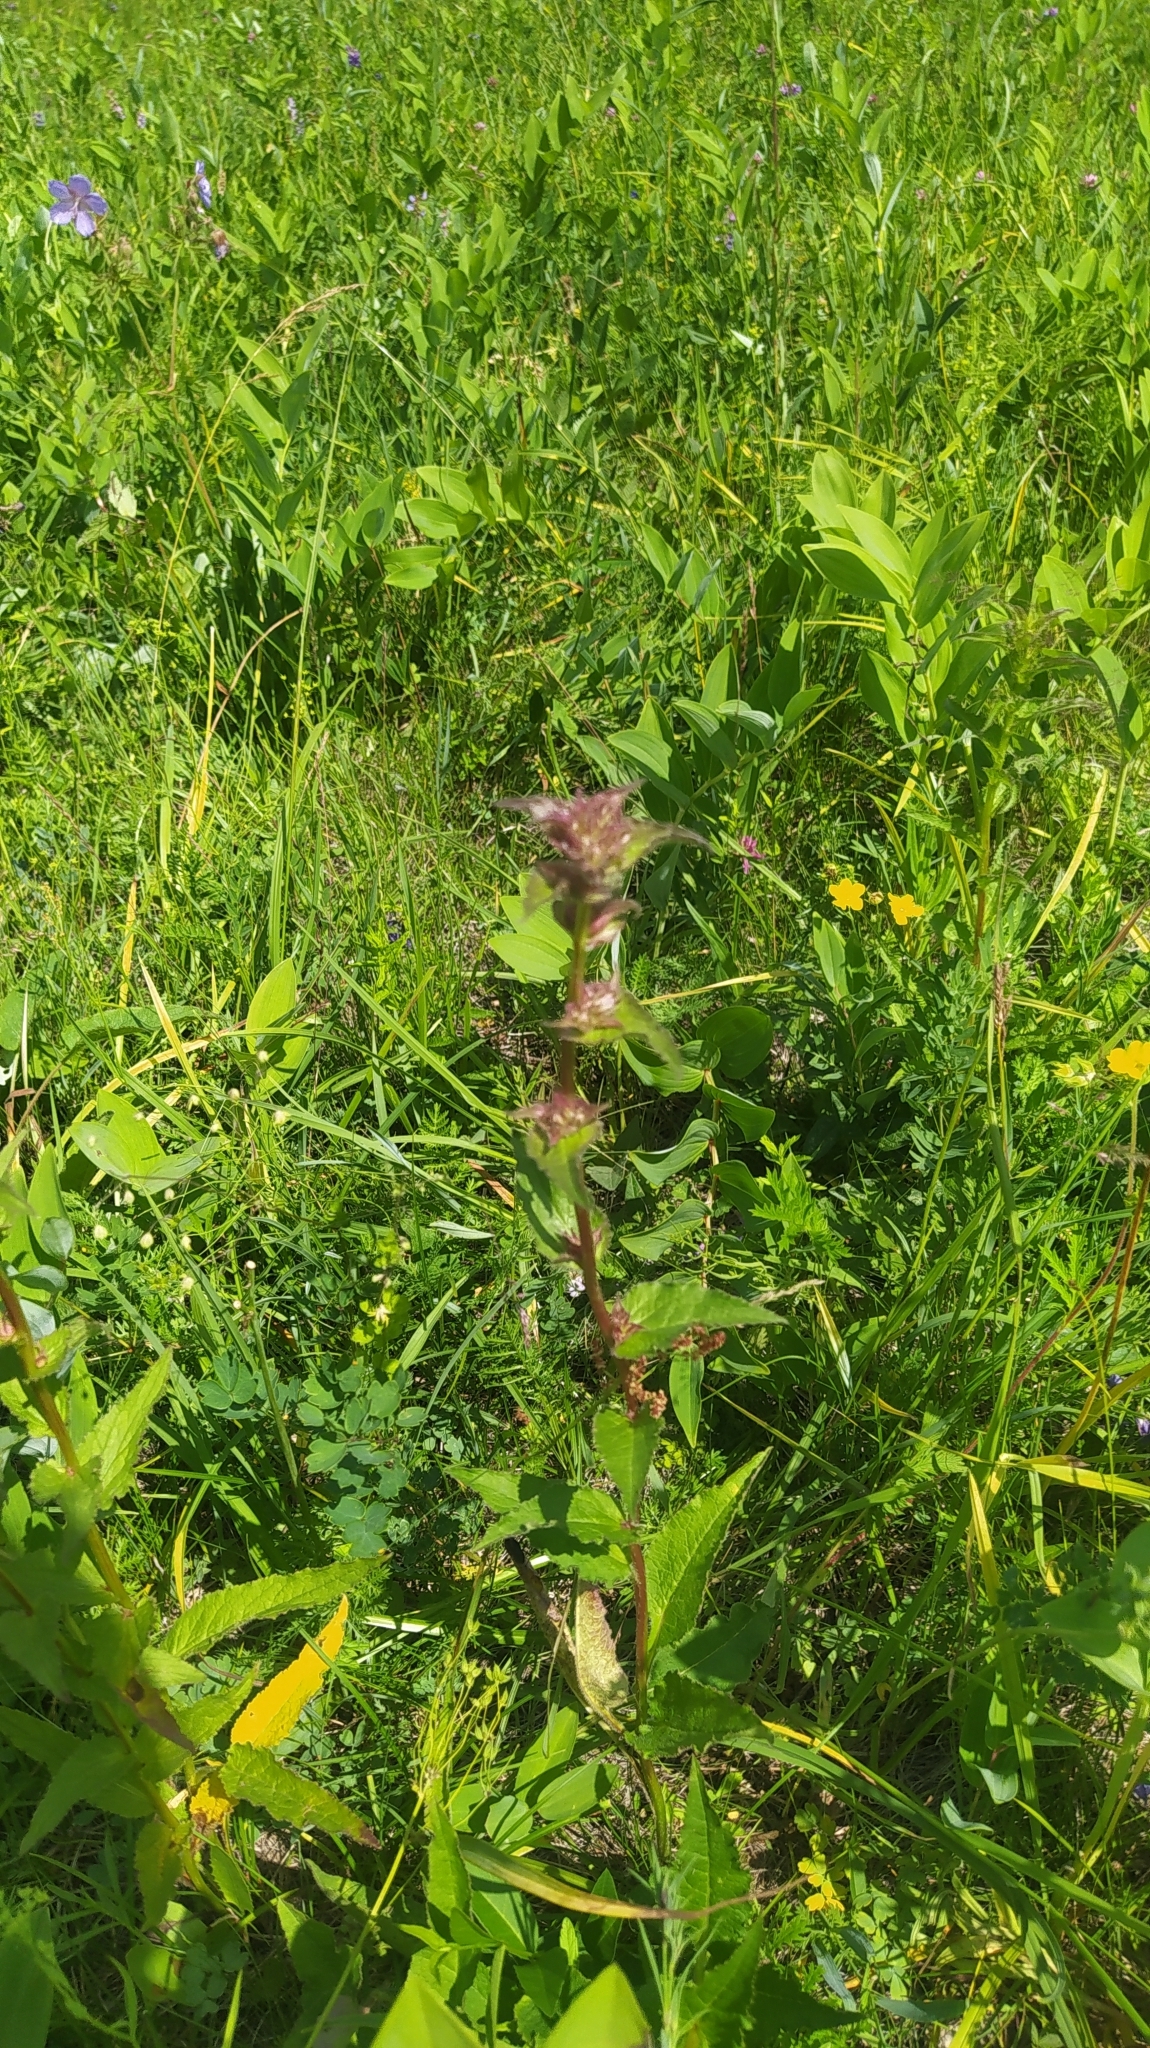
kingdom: Plantae
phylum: Tracheophyta
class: Magnoliopsida
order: Lamiales
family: Lamiaceae
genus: Phlomoides
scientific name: Phlomoides tuberosa
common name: Tuberous jerusalem sage
